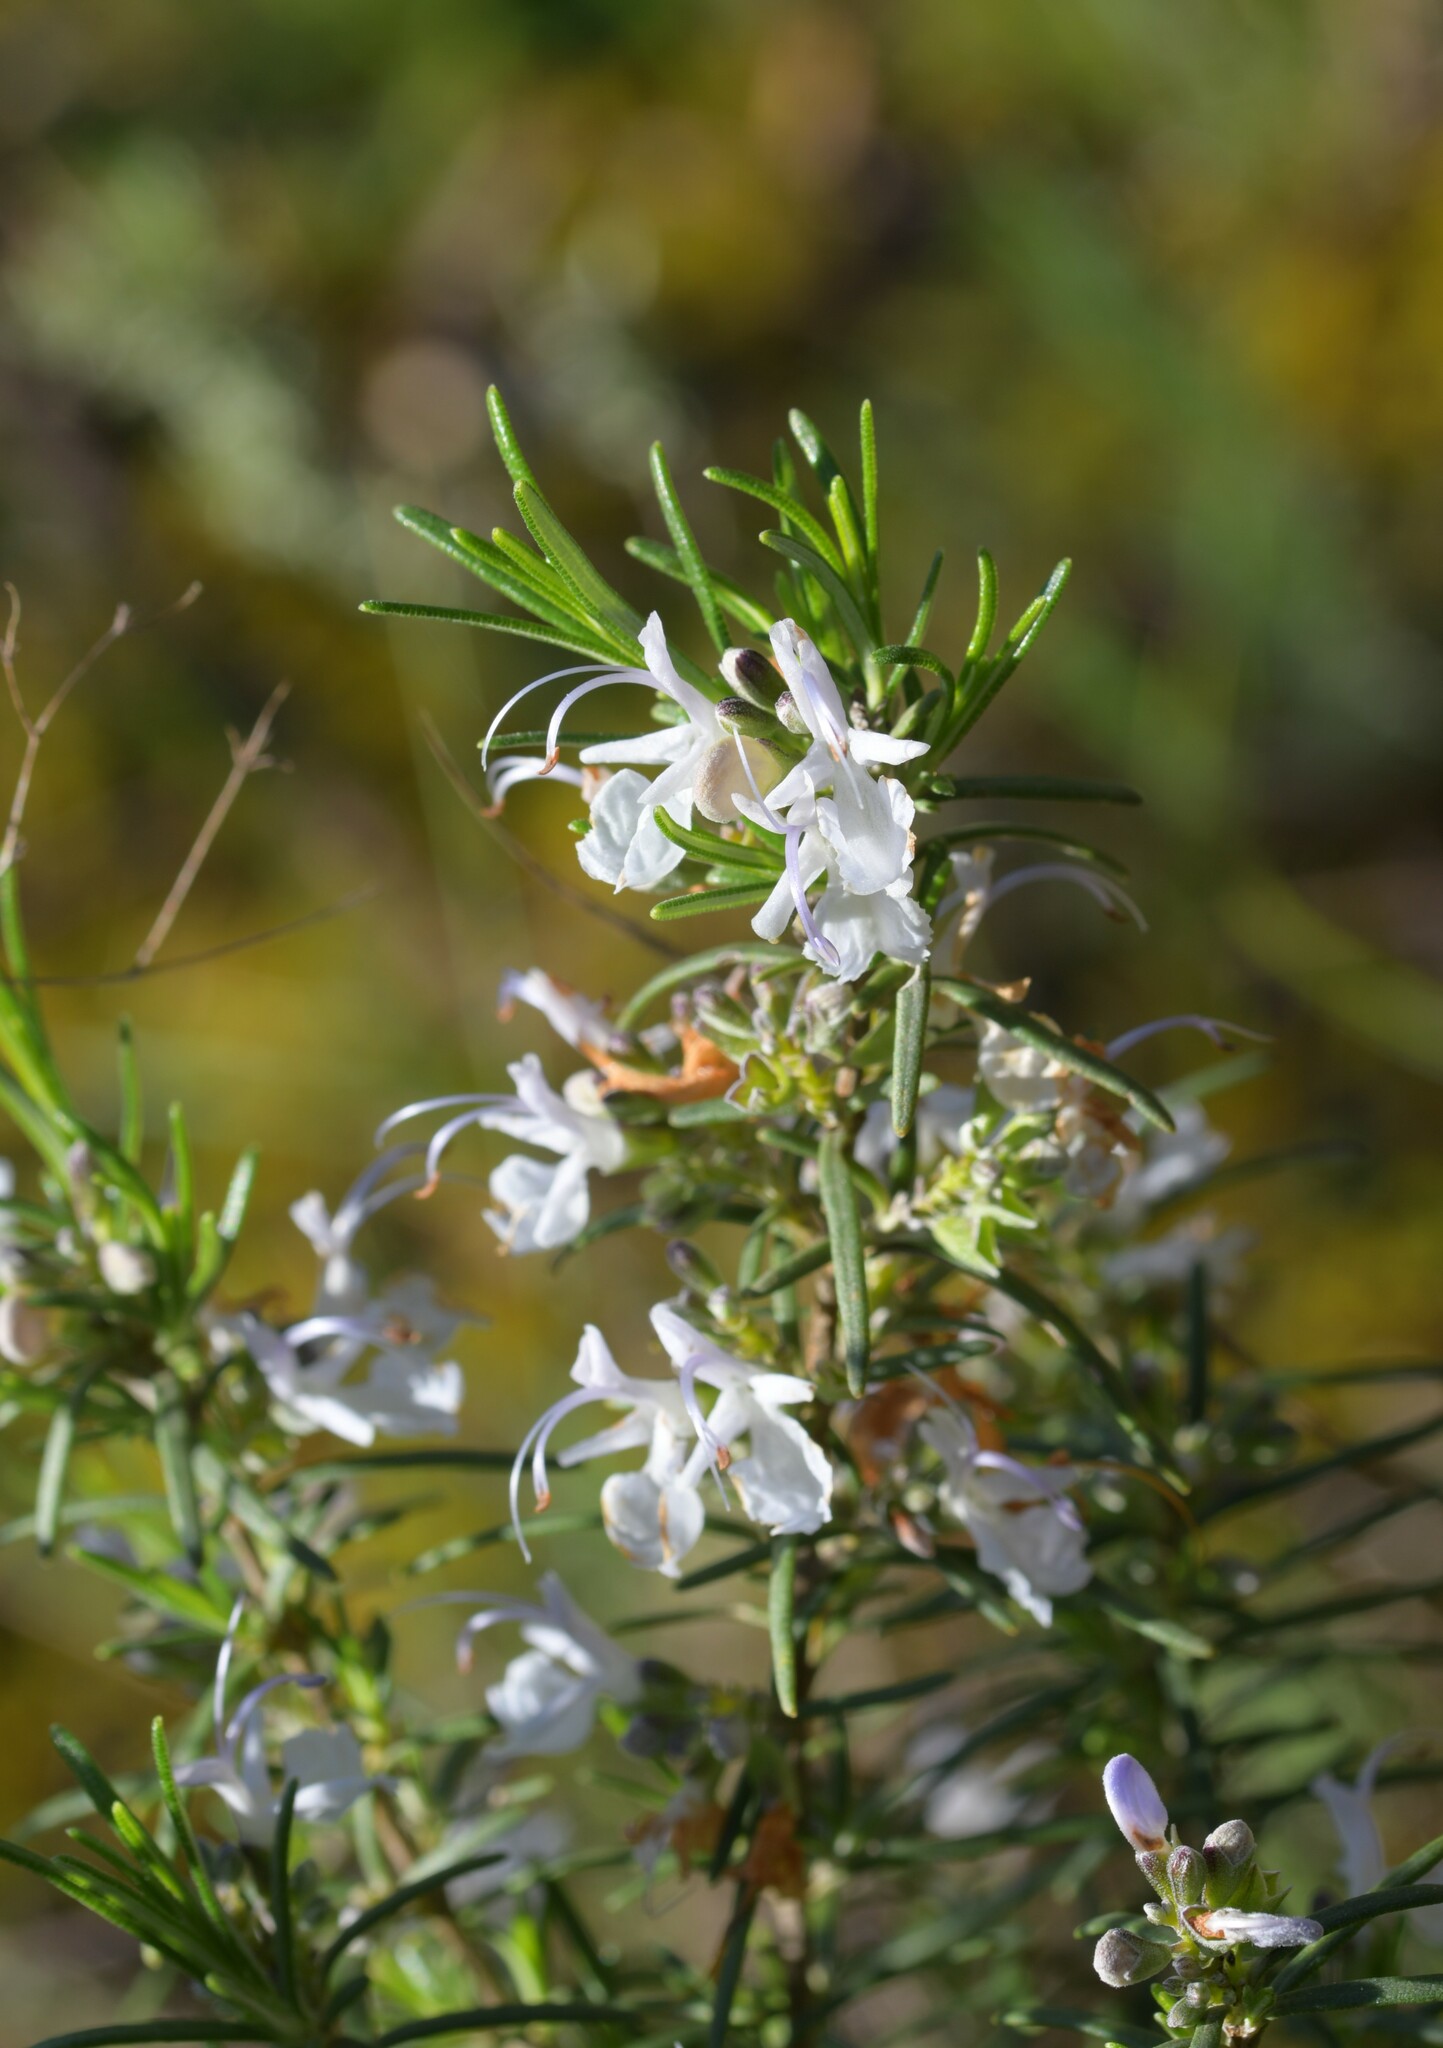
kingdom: Plantae
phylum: Tracheophyta
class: Magnoliopsida
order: Lamiales
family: Lamiaceae
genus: Salvia
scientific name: Salvia rosmarinus
